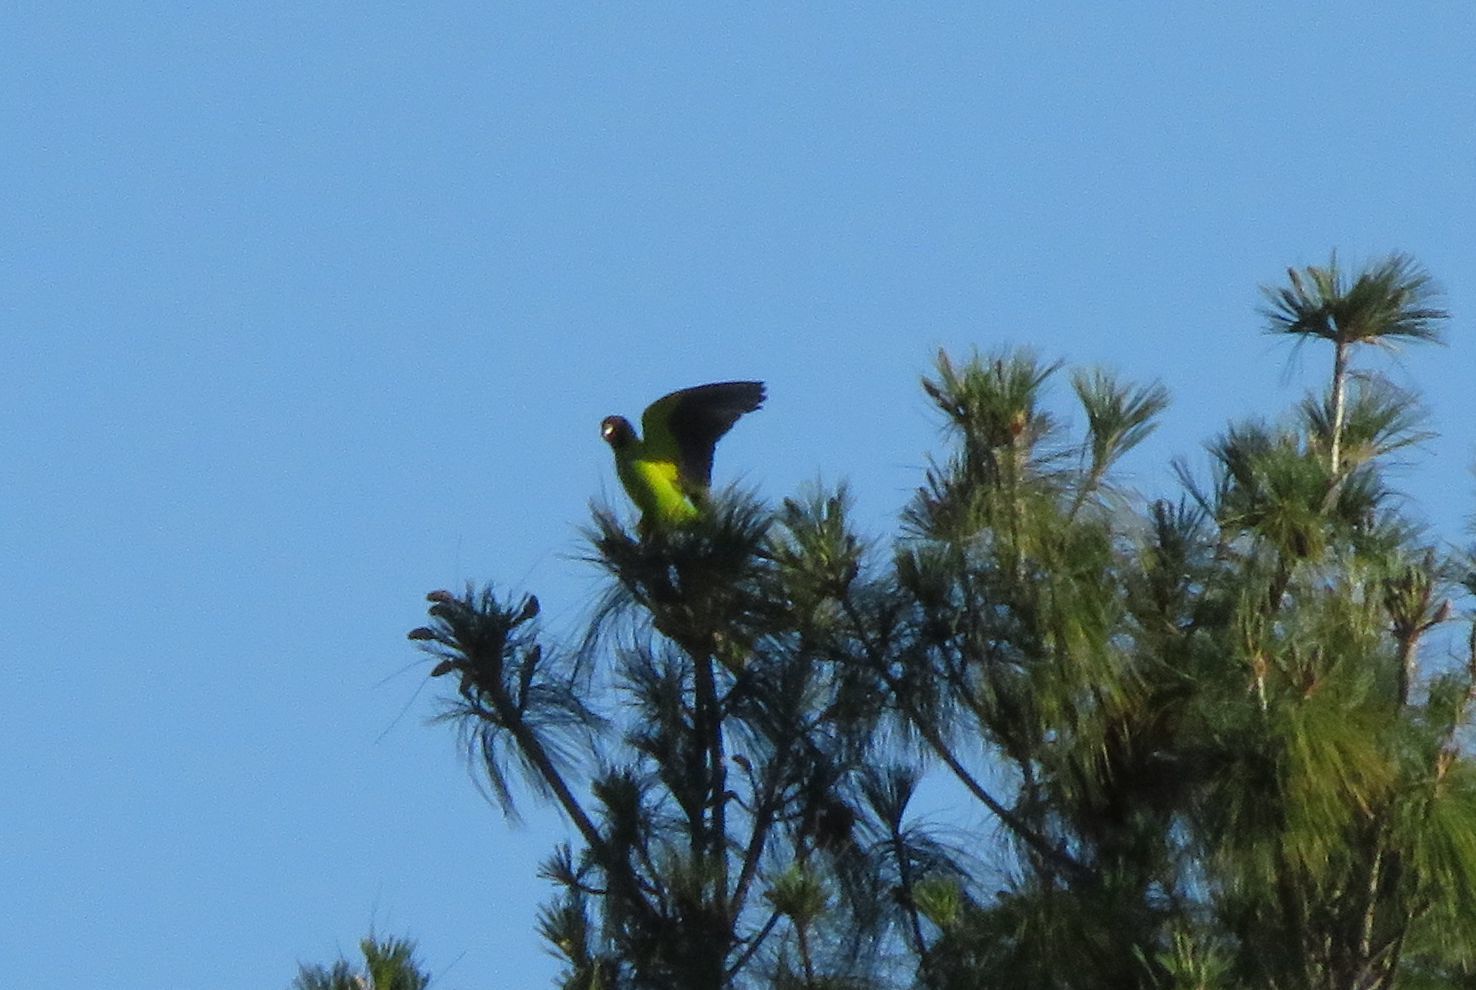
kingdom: Animalia
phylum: Chordata
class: Aves
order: Psittaciformes
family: Psittacidae
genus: Nandayus
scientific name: Nandayus nenday
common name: Nanday parakeet
